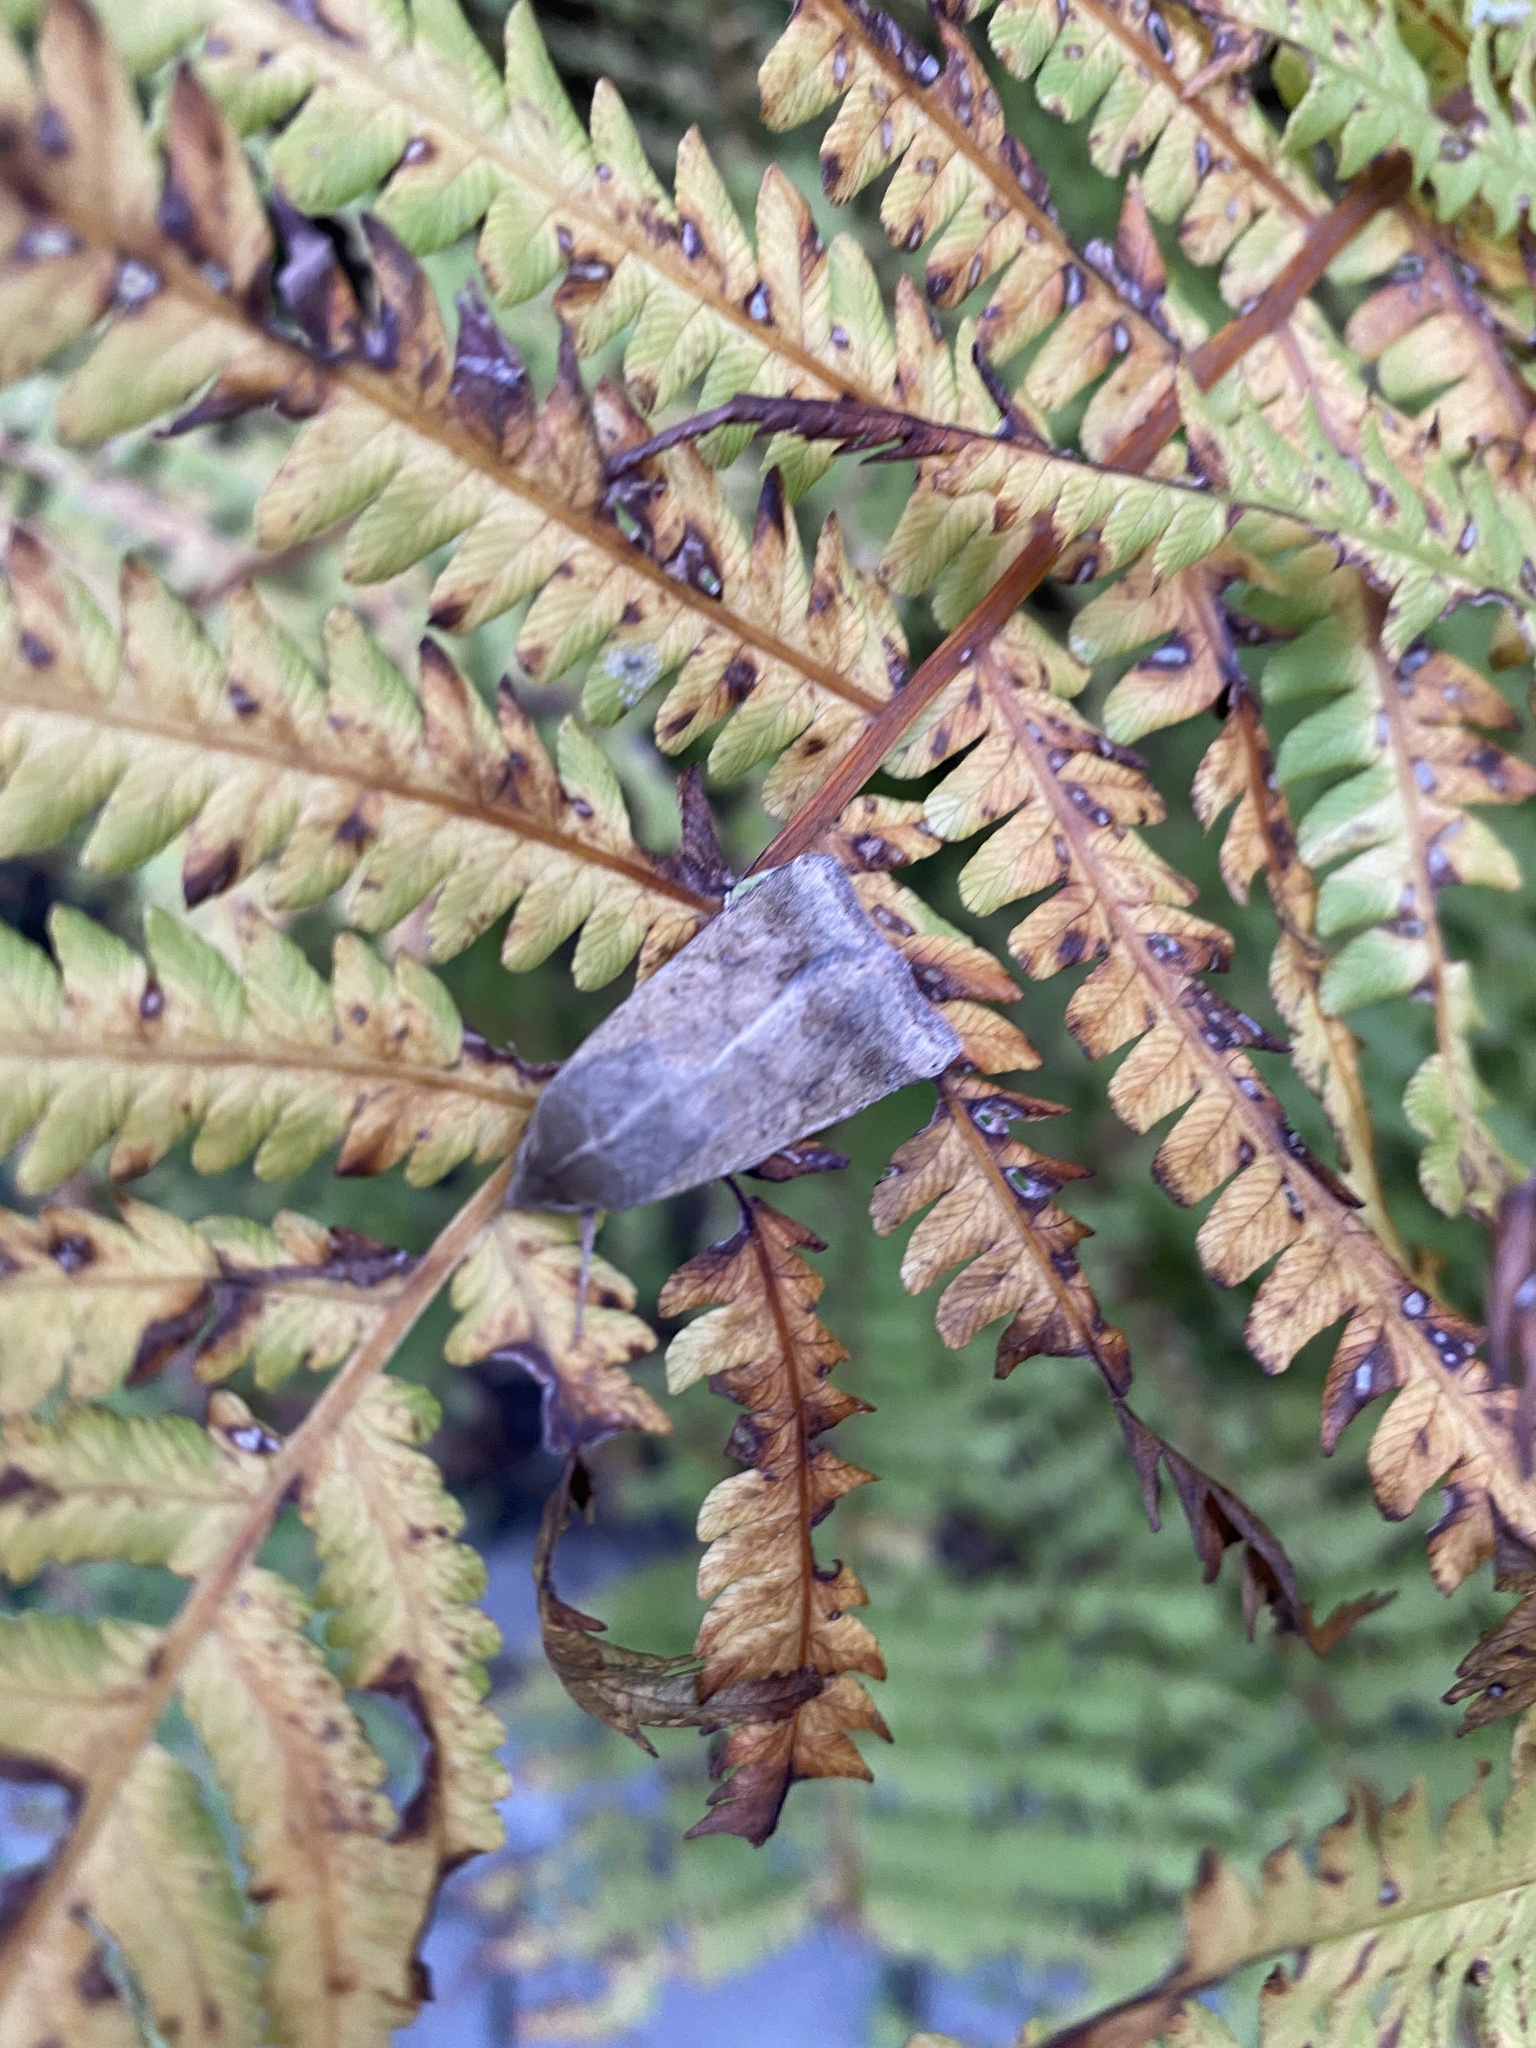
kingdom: Animalia
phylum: Arthropoda
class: Insecta
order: Lepidoptera
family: Noctuidae
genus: Helicoverpa
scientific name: Helicoverpa armigera
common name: Cotton bollworm
